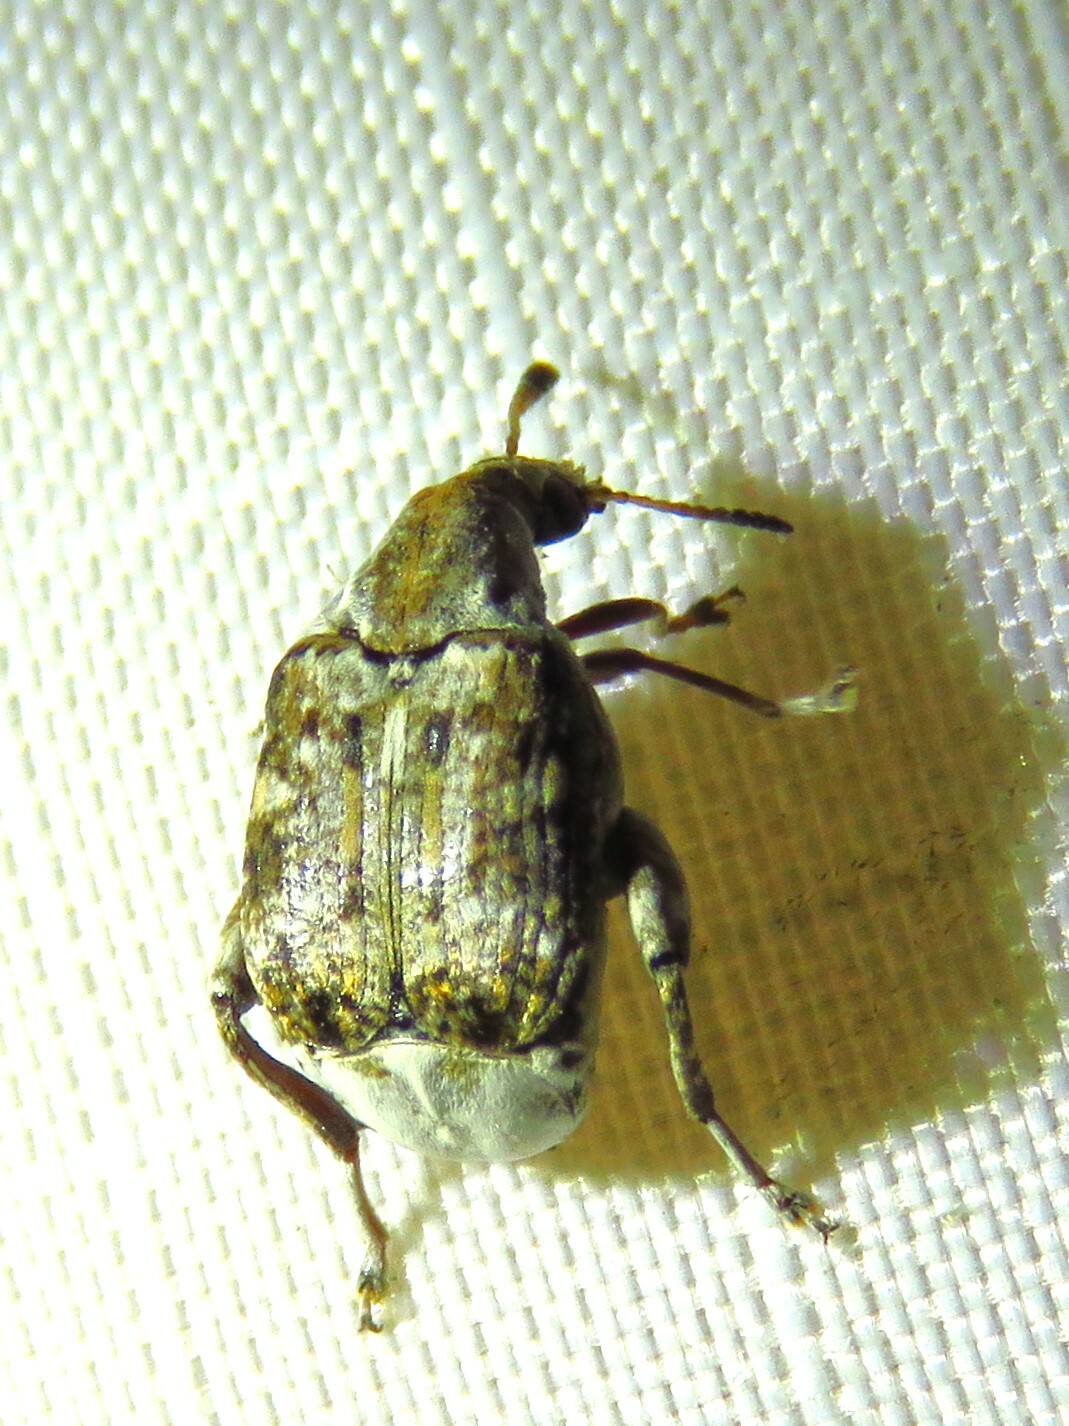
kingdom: Animalia
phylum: Arthropoda
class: Insecta
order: Coleoptera
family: Chrysomelidae
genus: Merobruchus
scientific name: Merobruchus major
